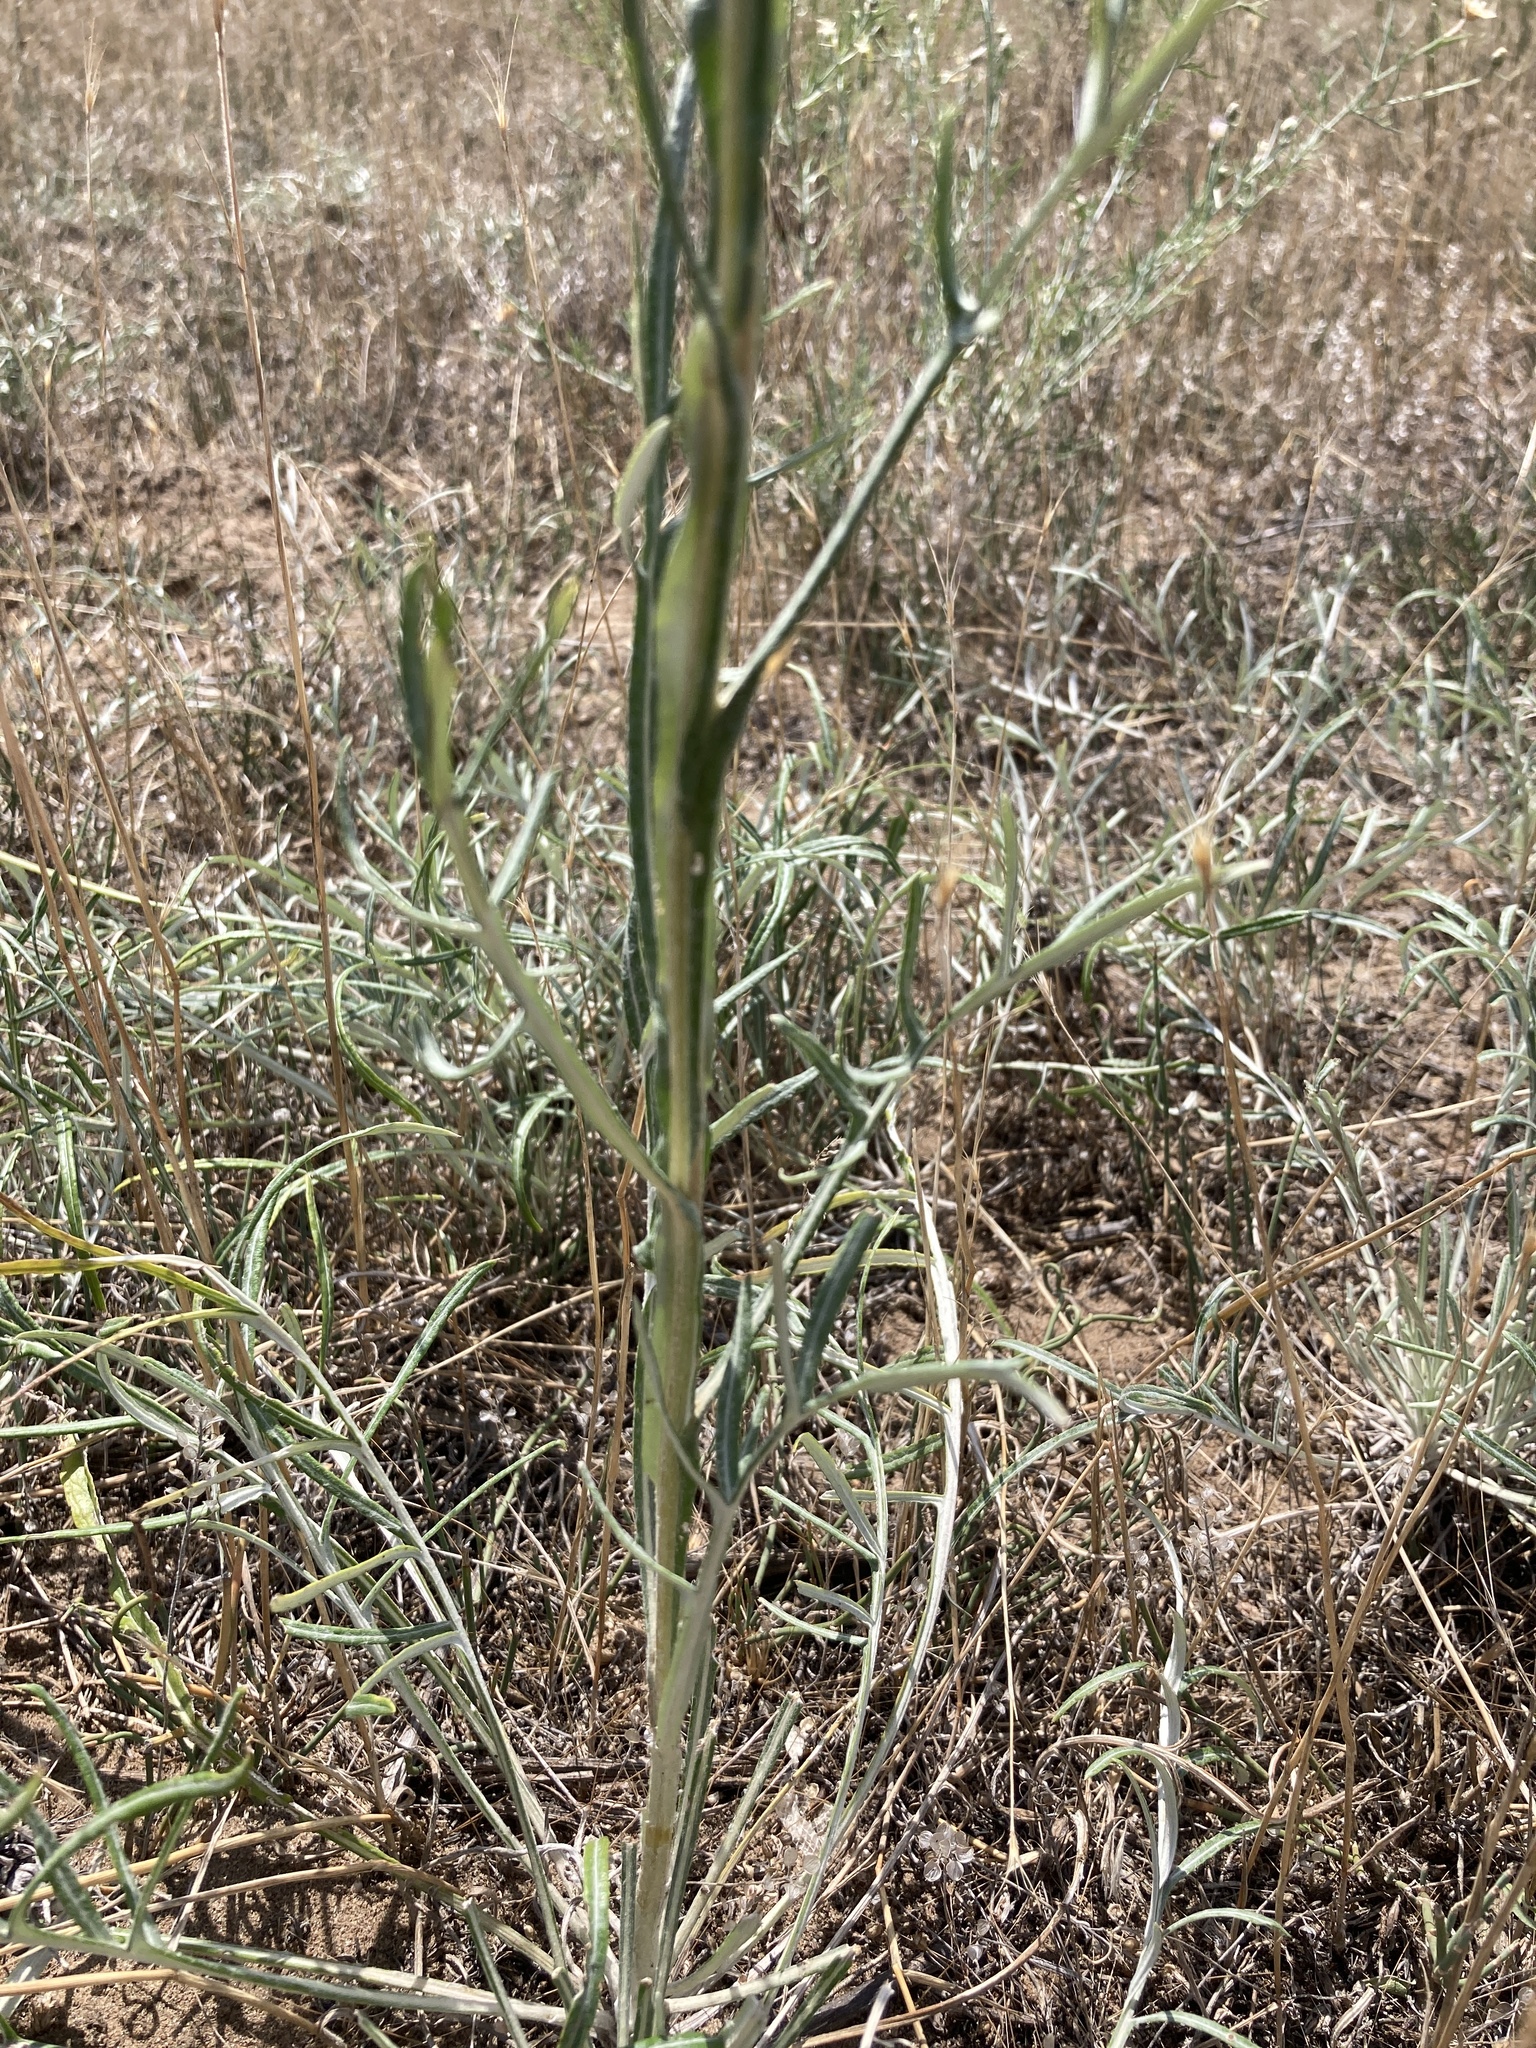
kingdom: Plantae
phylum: Tracheophyta
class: Magnoliopsida
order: Asterales
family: Asteraceae
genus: Jurinea
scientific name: Jurinea cyanoides
